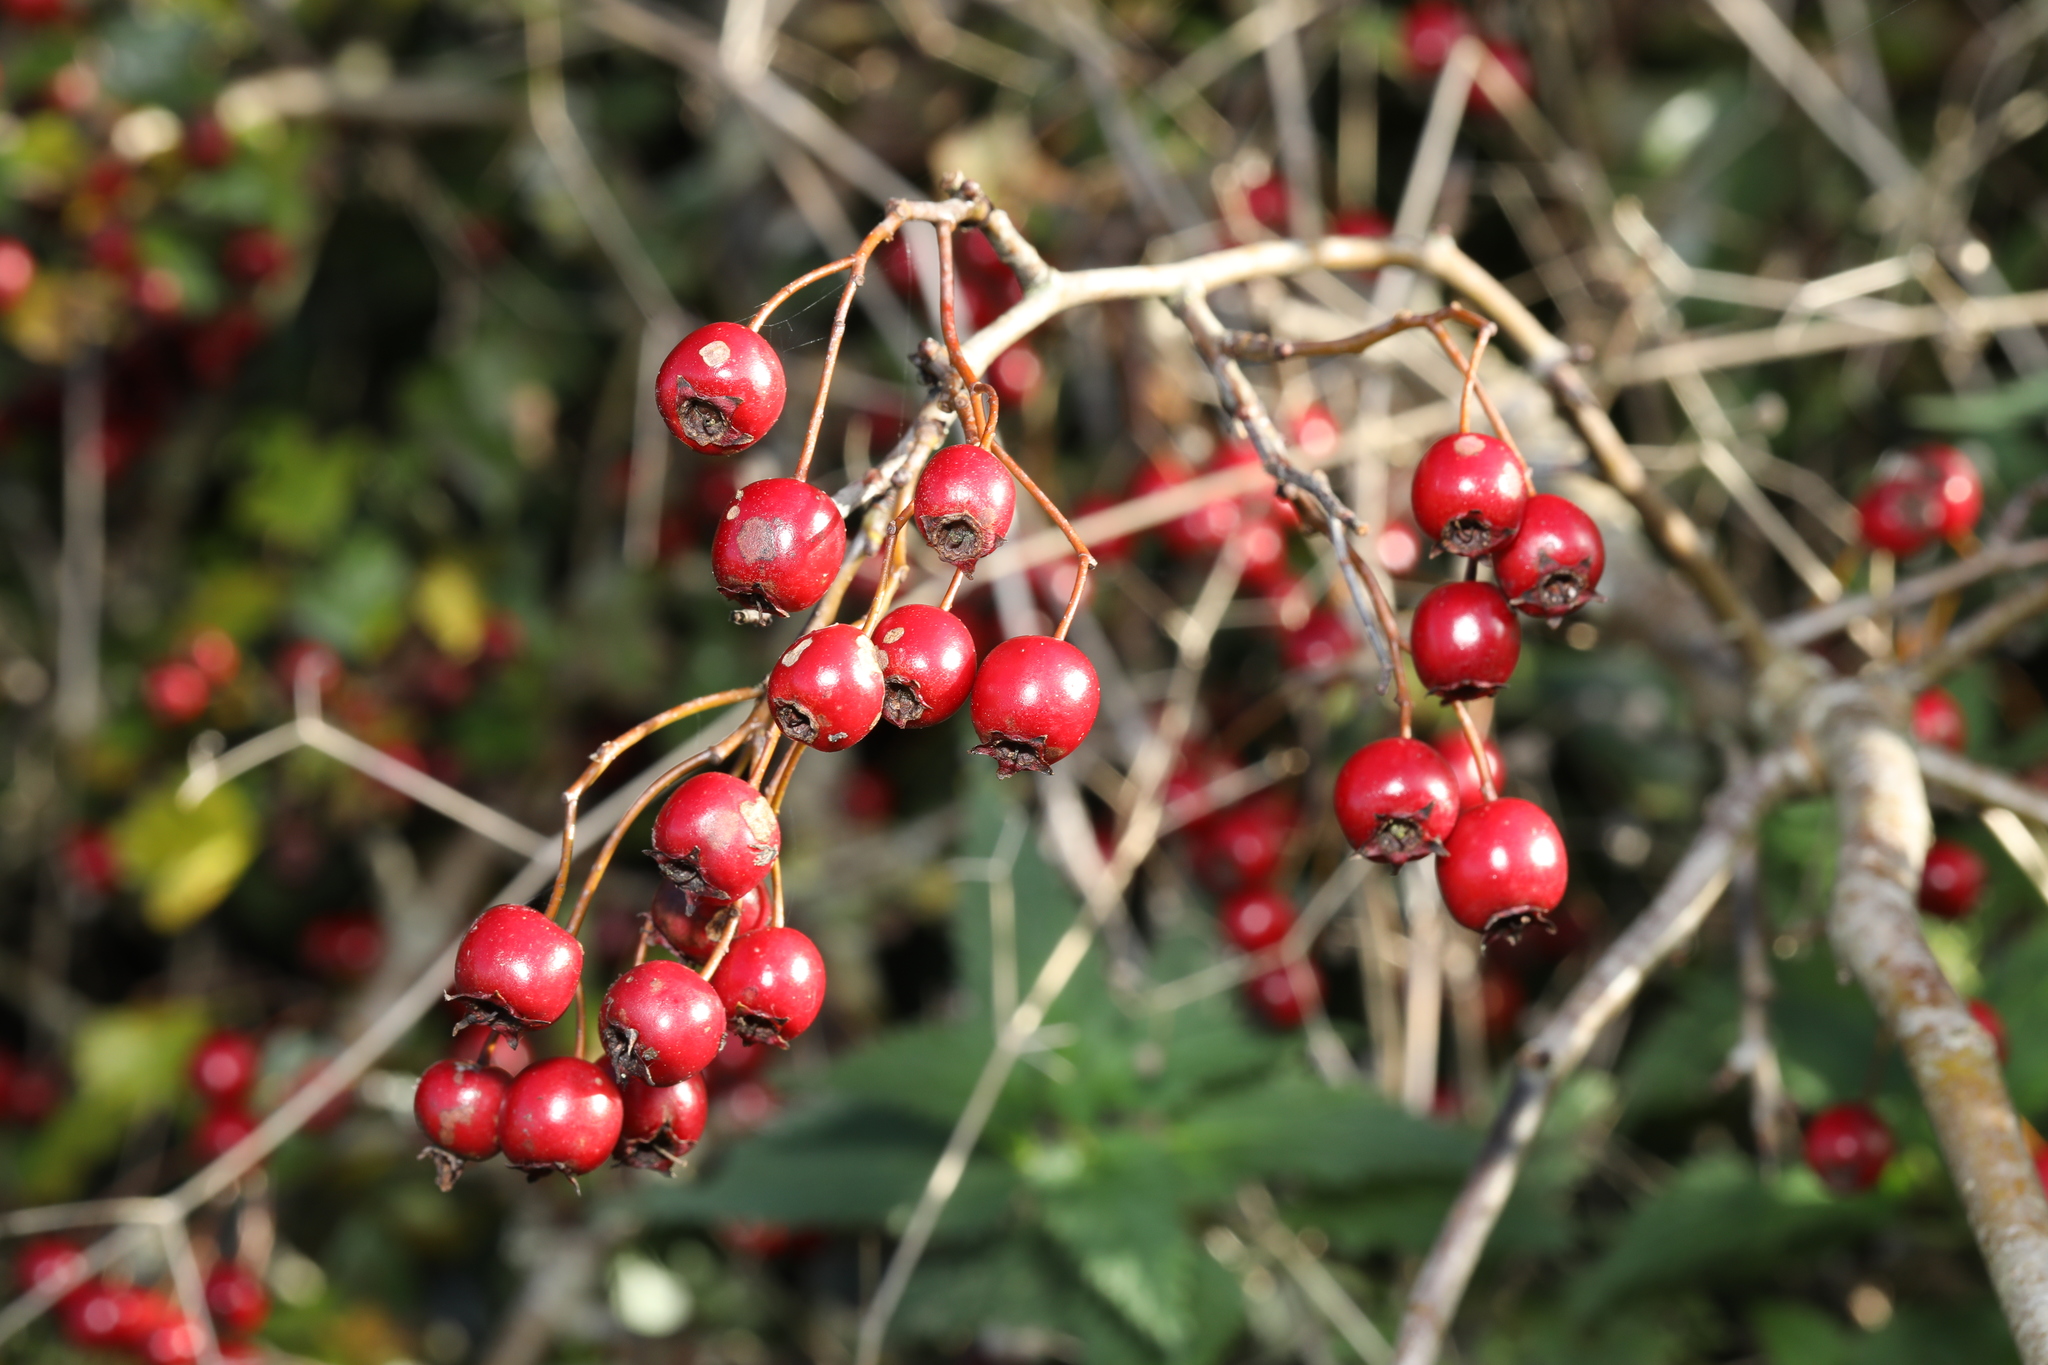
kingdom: Plantae
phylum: Tracheophyta
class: Magnoliopsida
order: Rosales
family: Rosaceae
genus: Crataegus
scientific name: Crataegus monogyna
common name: Hawthorn
